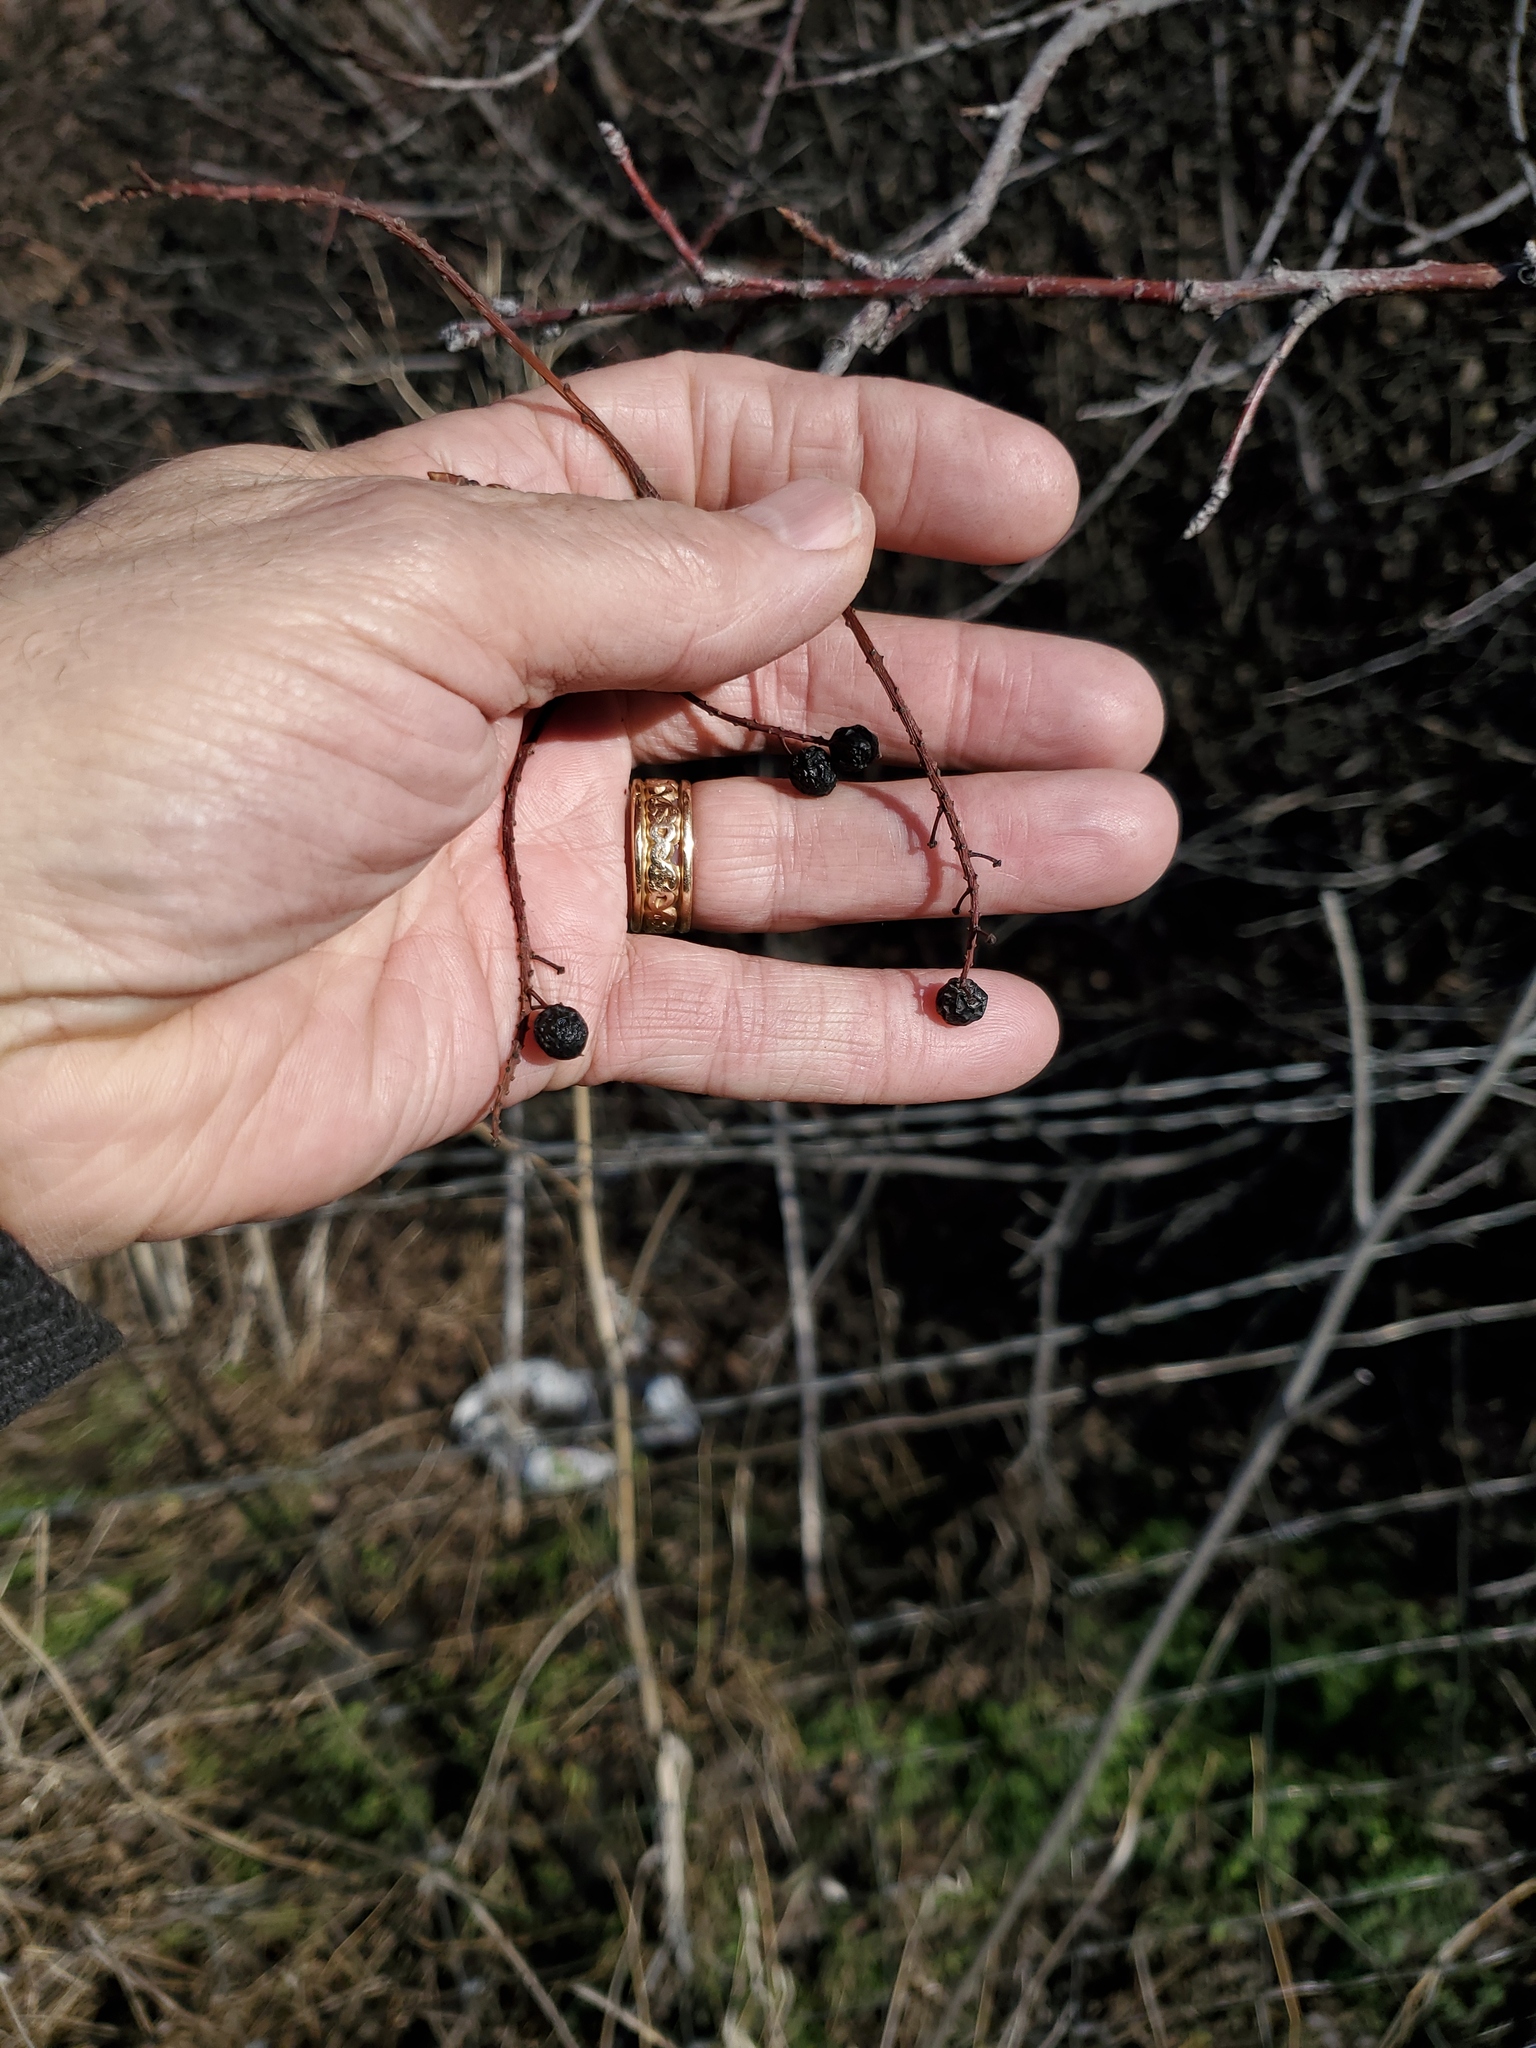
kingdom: Plantae
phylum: Tracheophyta
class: Magnoliopsida
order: Rosales
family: Rosaceae
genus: Prunus
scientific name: Prunus virginiana
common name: Chokecherry
